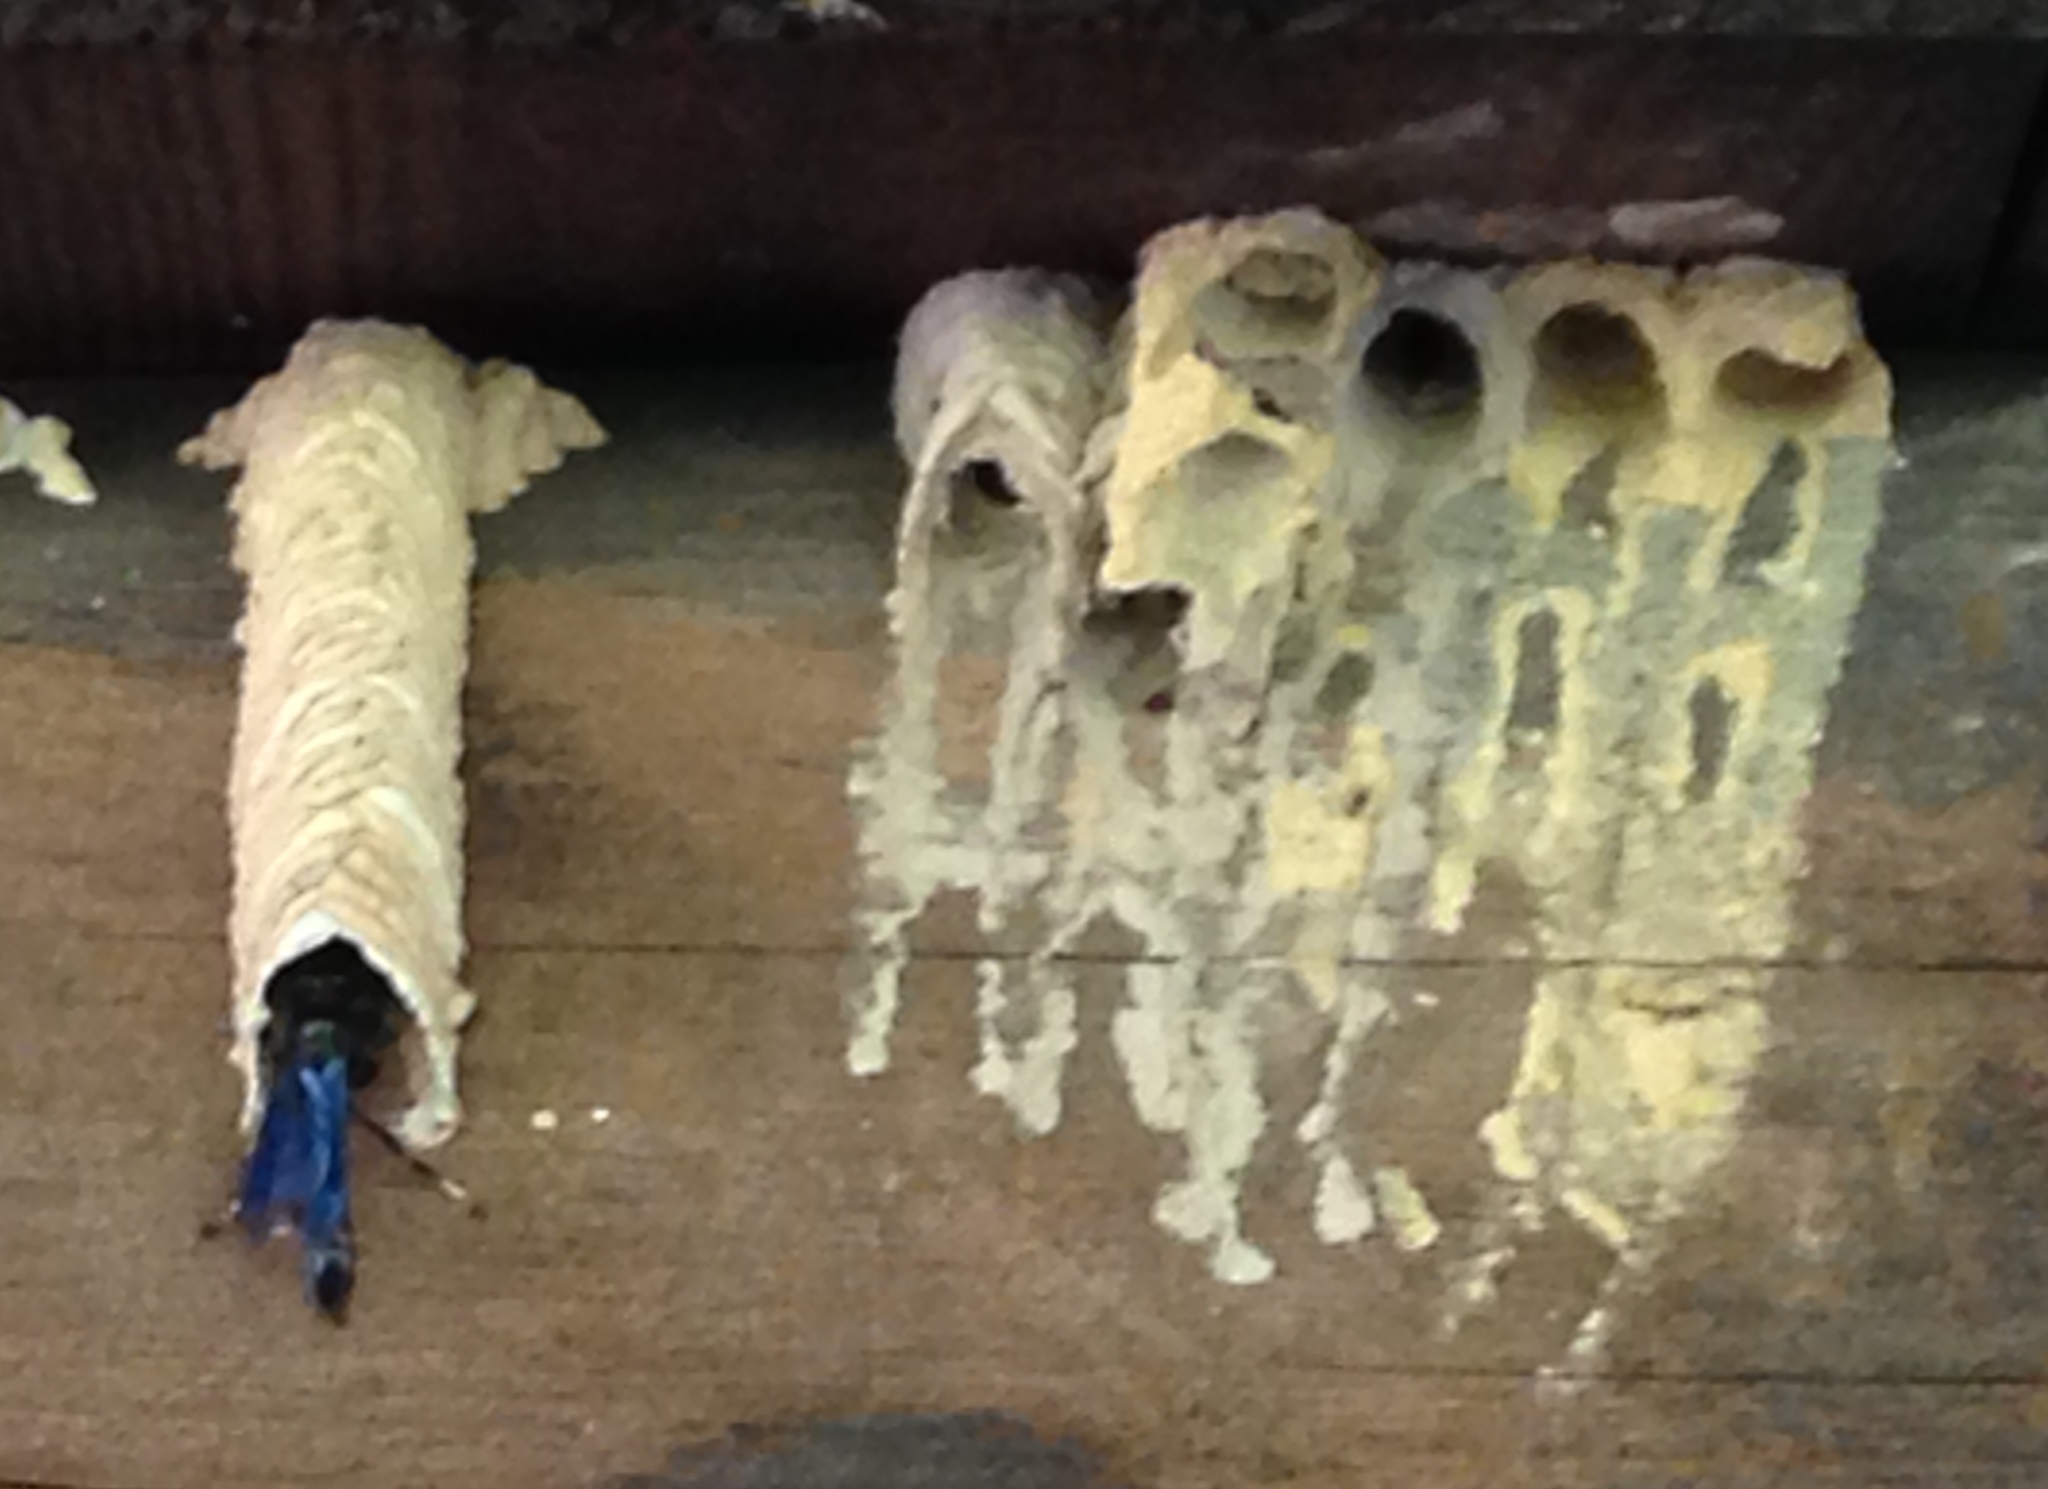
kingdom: Animalia
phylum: Arthropoda
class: Insecta
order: Hymenoptera
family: Crabronidae
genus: Trypoxylon
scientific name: Trypoxylon politum
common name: Organ-pipe mud-dauber wasp
